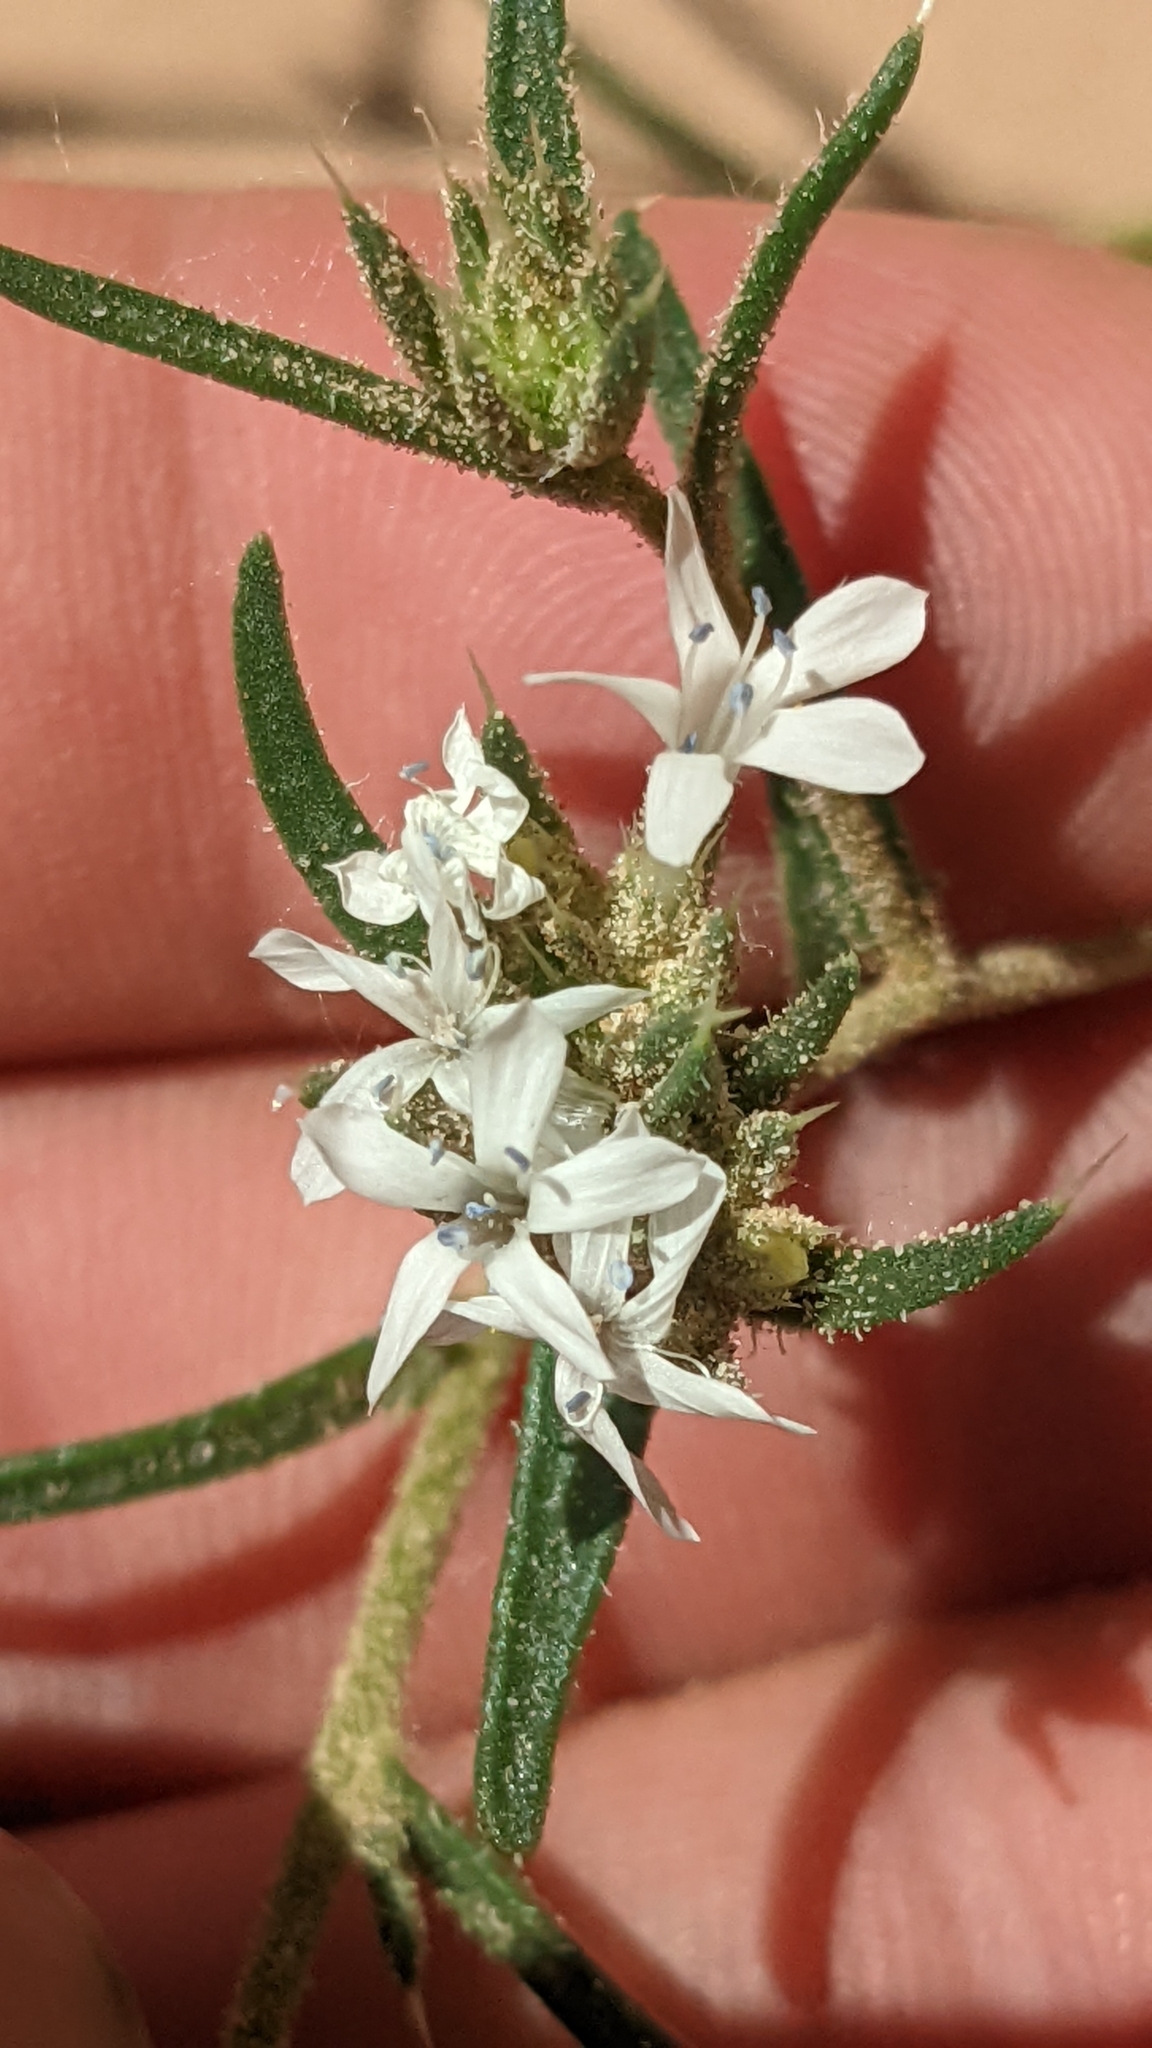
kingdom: Plantae
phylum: Tracheophyta
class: Magnoliopsida
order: Ericales
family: Polemoniaceae
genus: Ipomopsis
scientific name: Ipomopsis gunnisonii
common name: Sand-dune gilia
